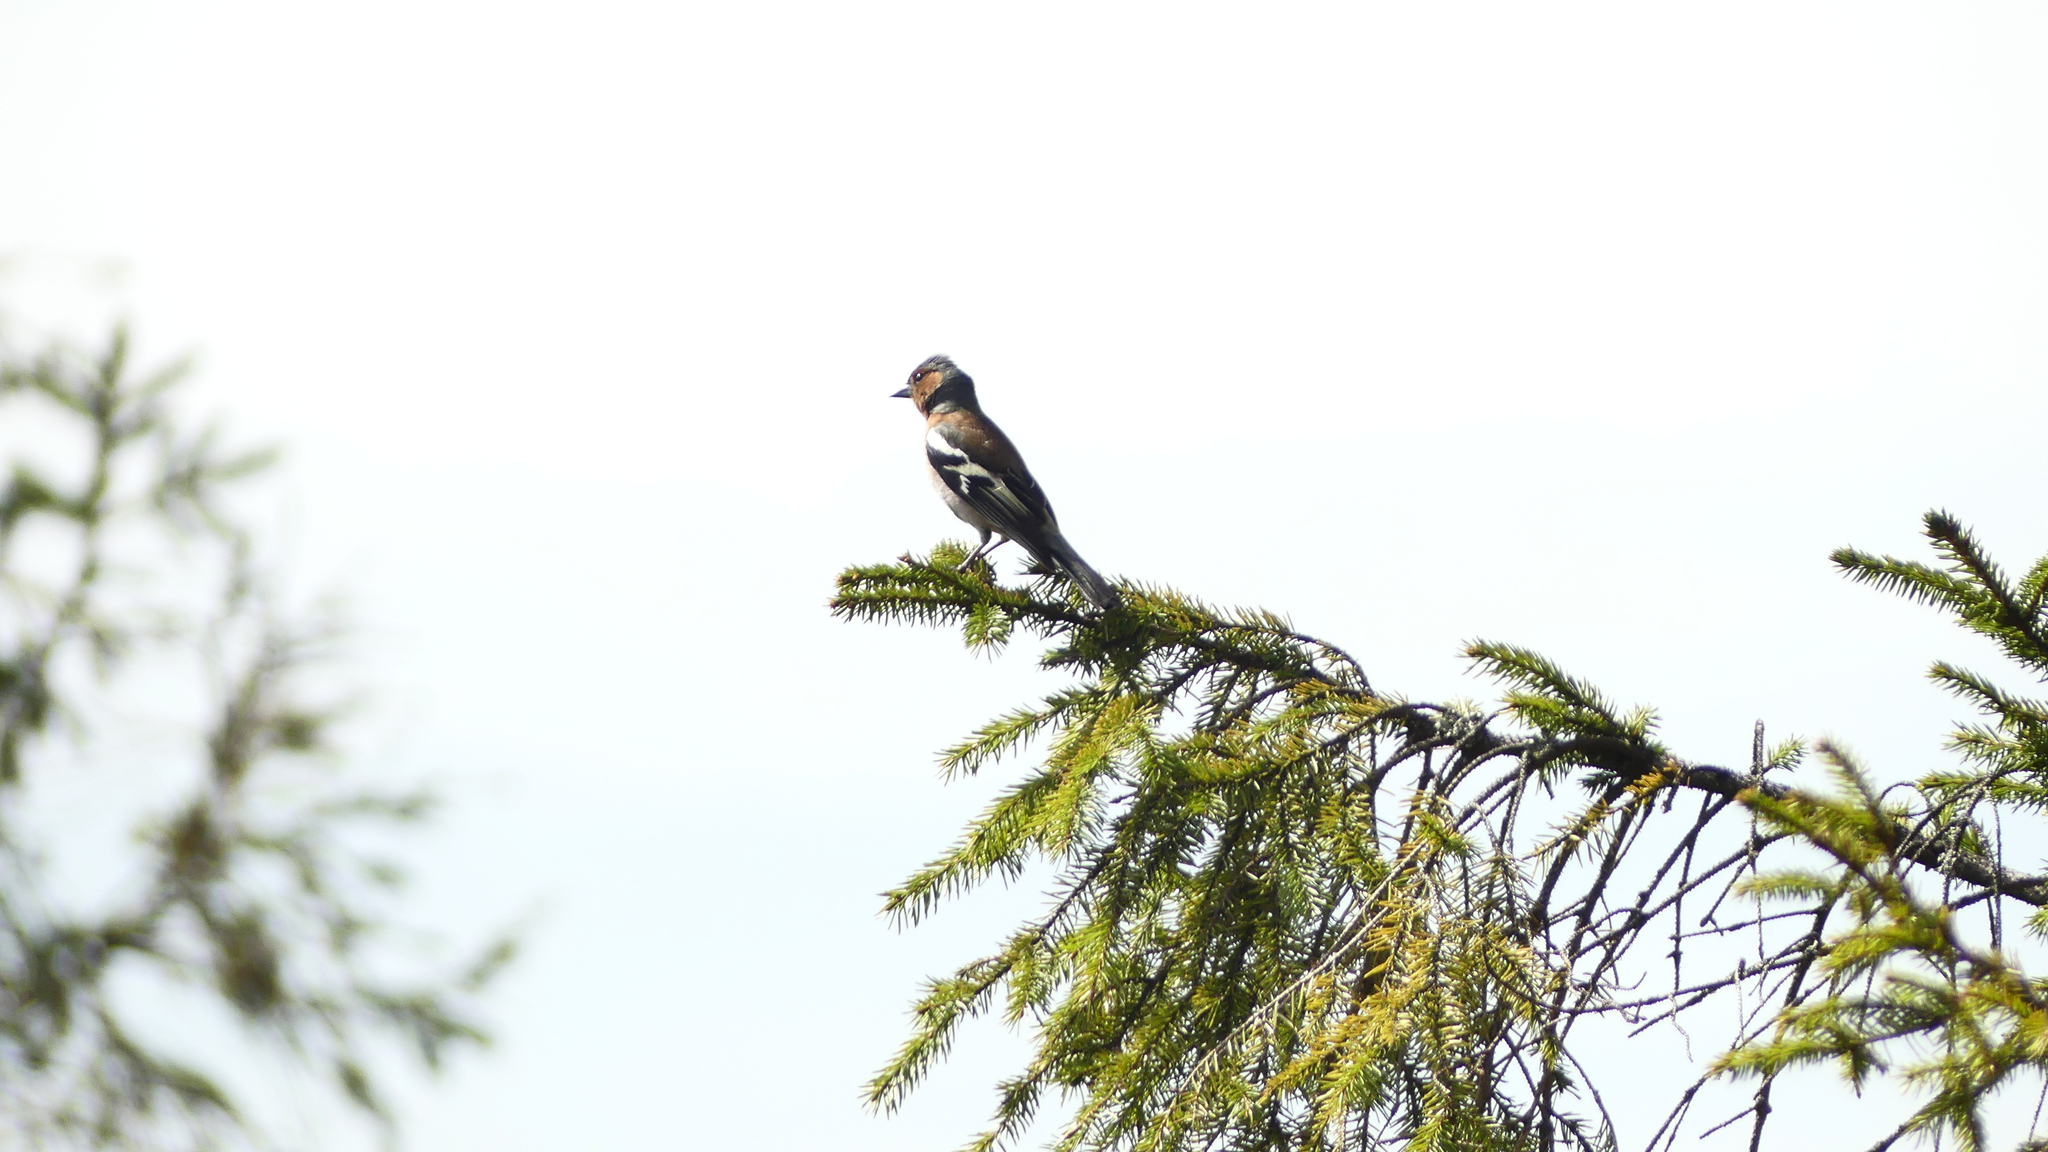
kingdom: Animalia
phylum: Chordata
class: Aves
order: Passeriformes
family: Fringillidae
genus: Fringilla
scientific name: Fringilla coelebs
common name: Common chaffinch
